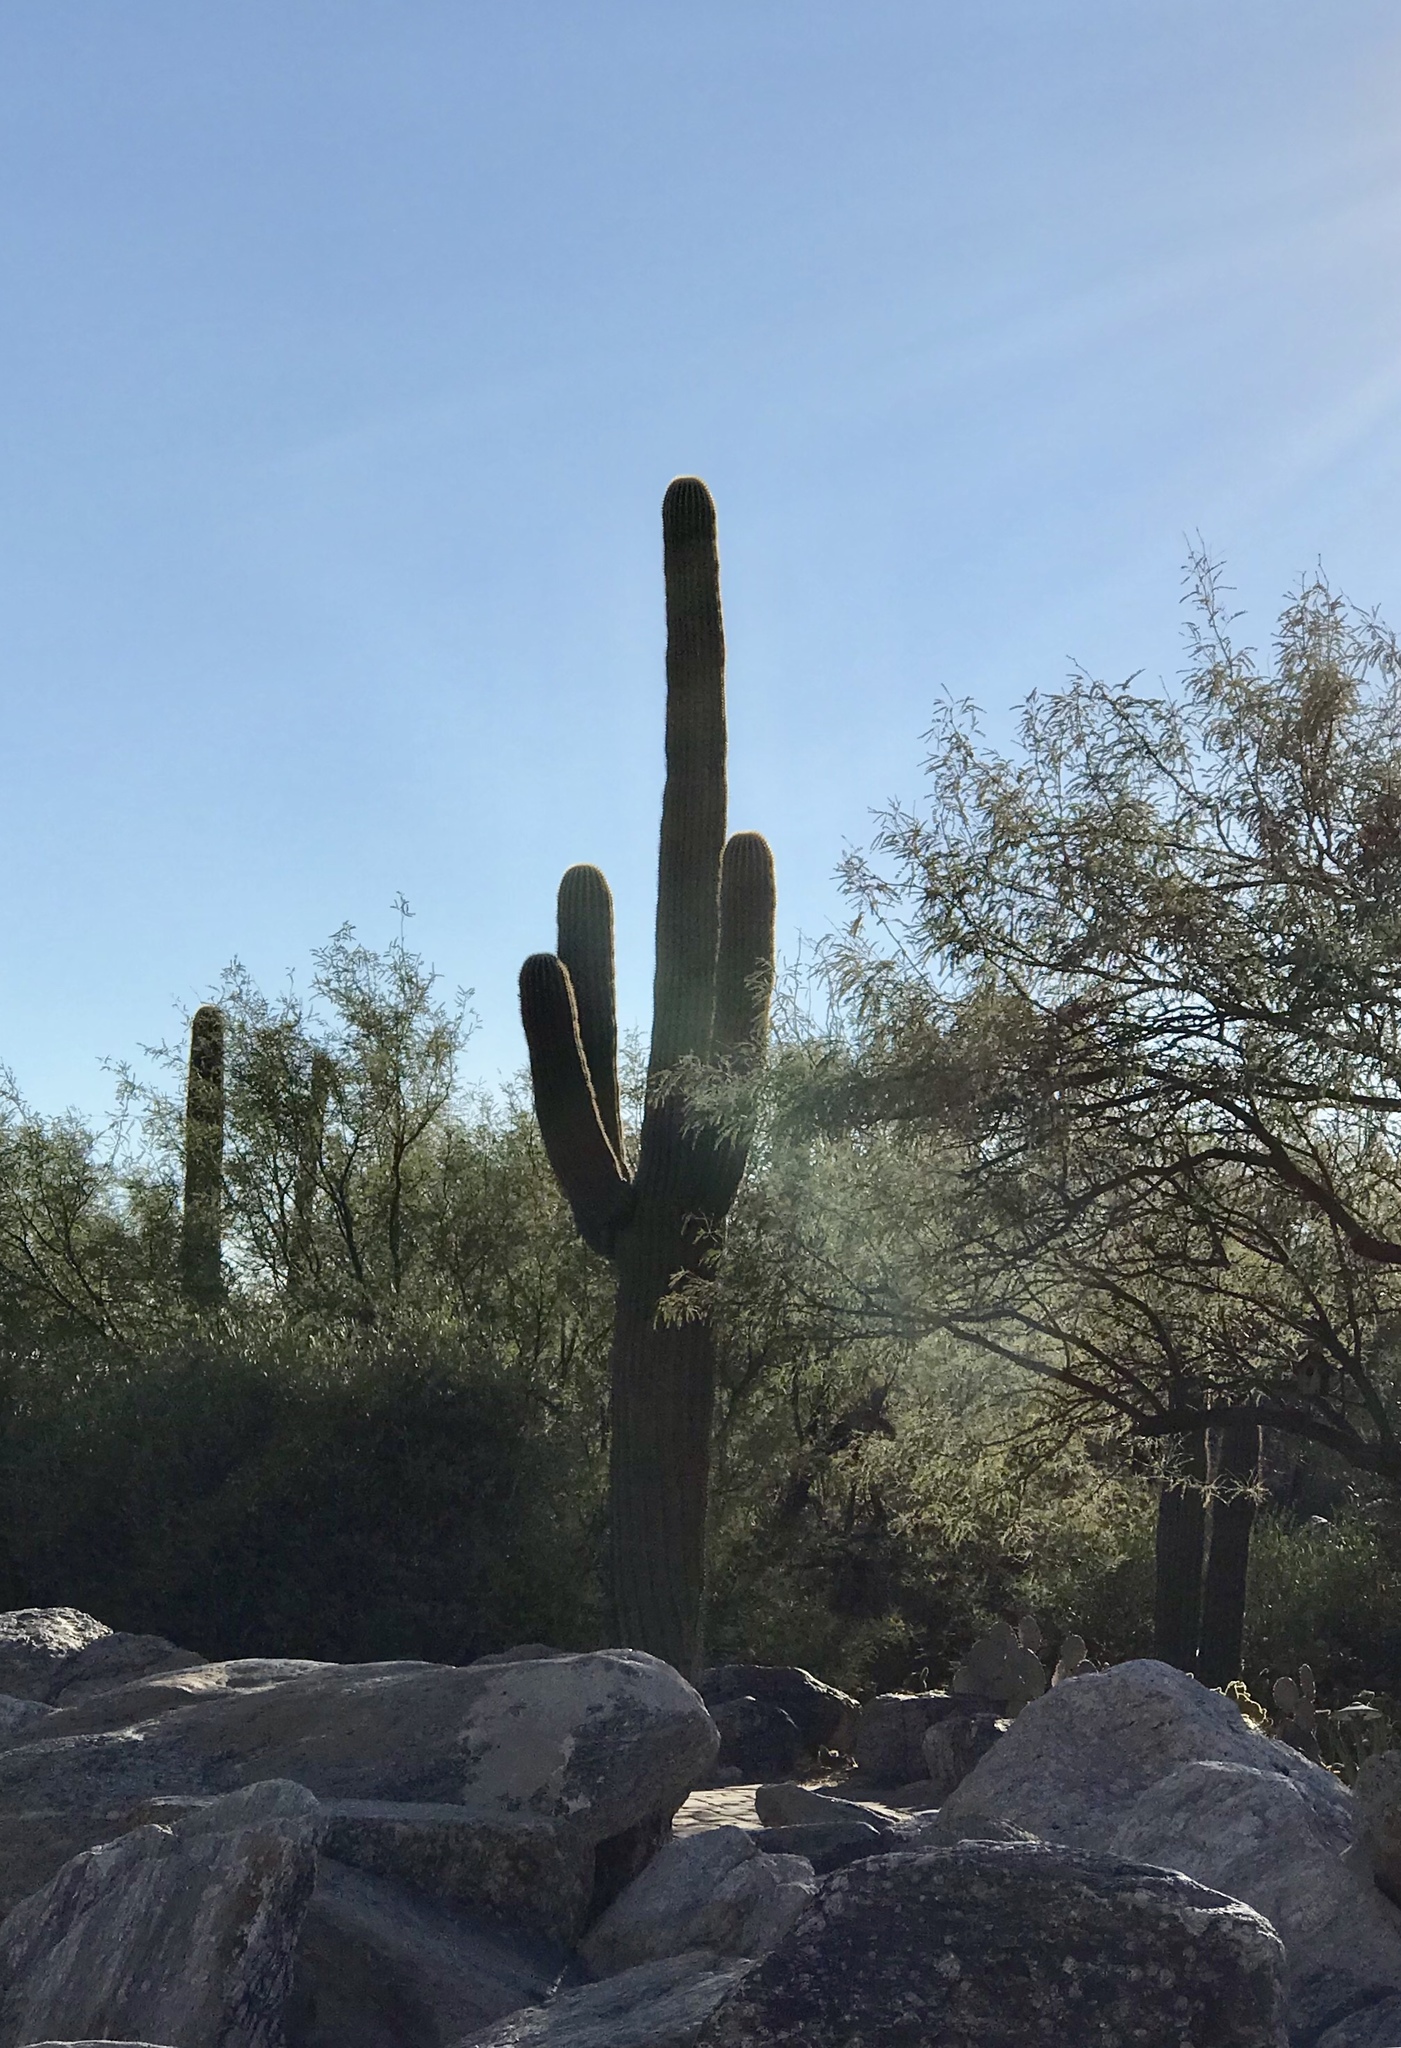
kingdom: Plantae
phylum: Tracheophyta
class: Magnoliopsida
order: Caryophyllales
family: Cactaceae
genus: Carnegiea
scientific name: Carnegiea gigantea
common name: Saguaro
